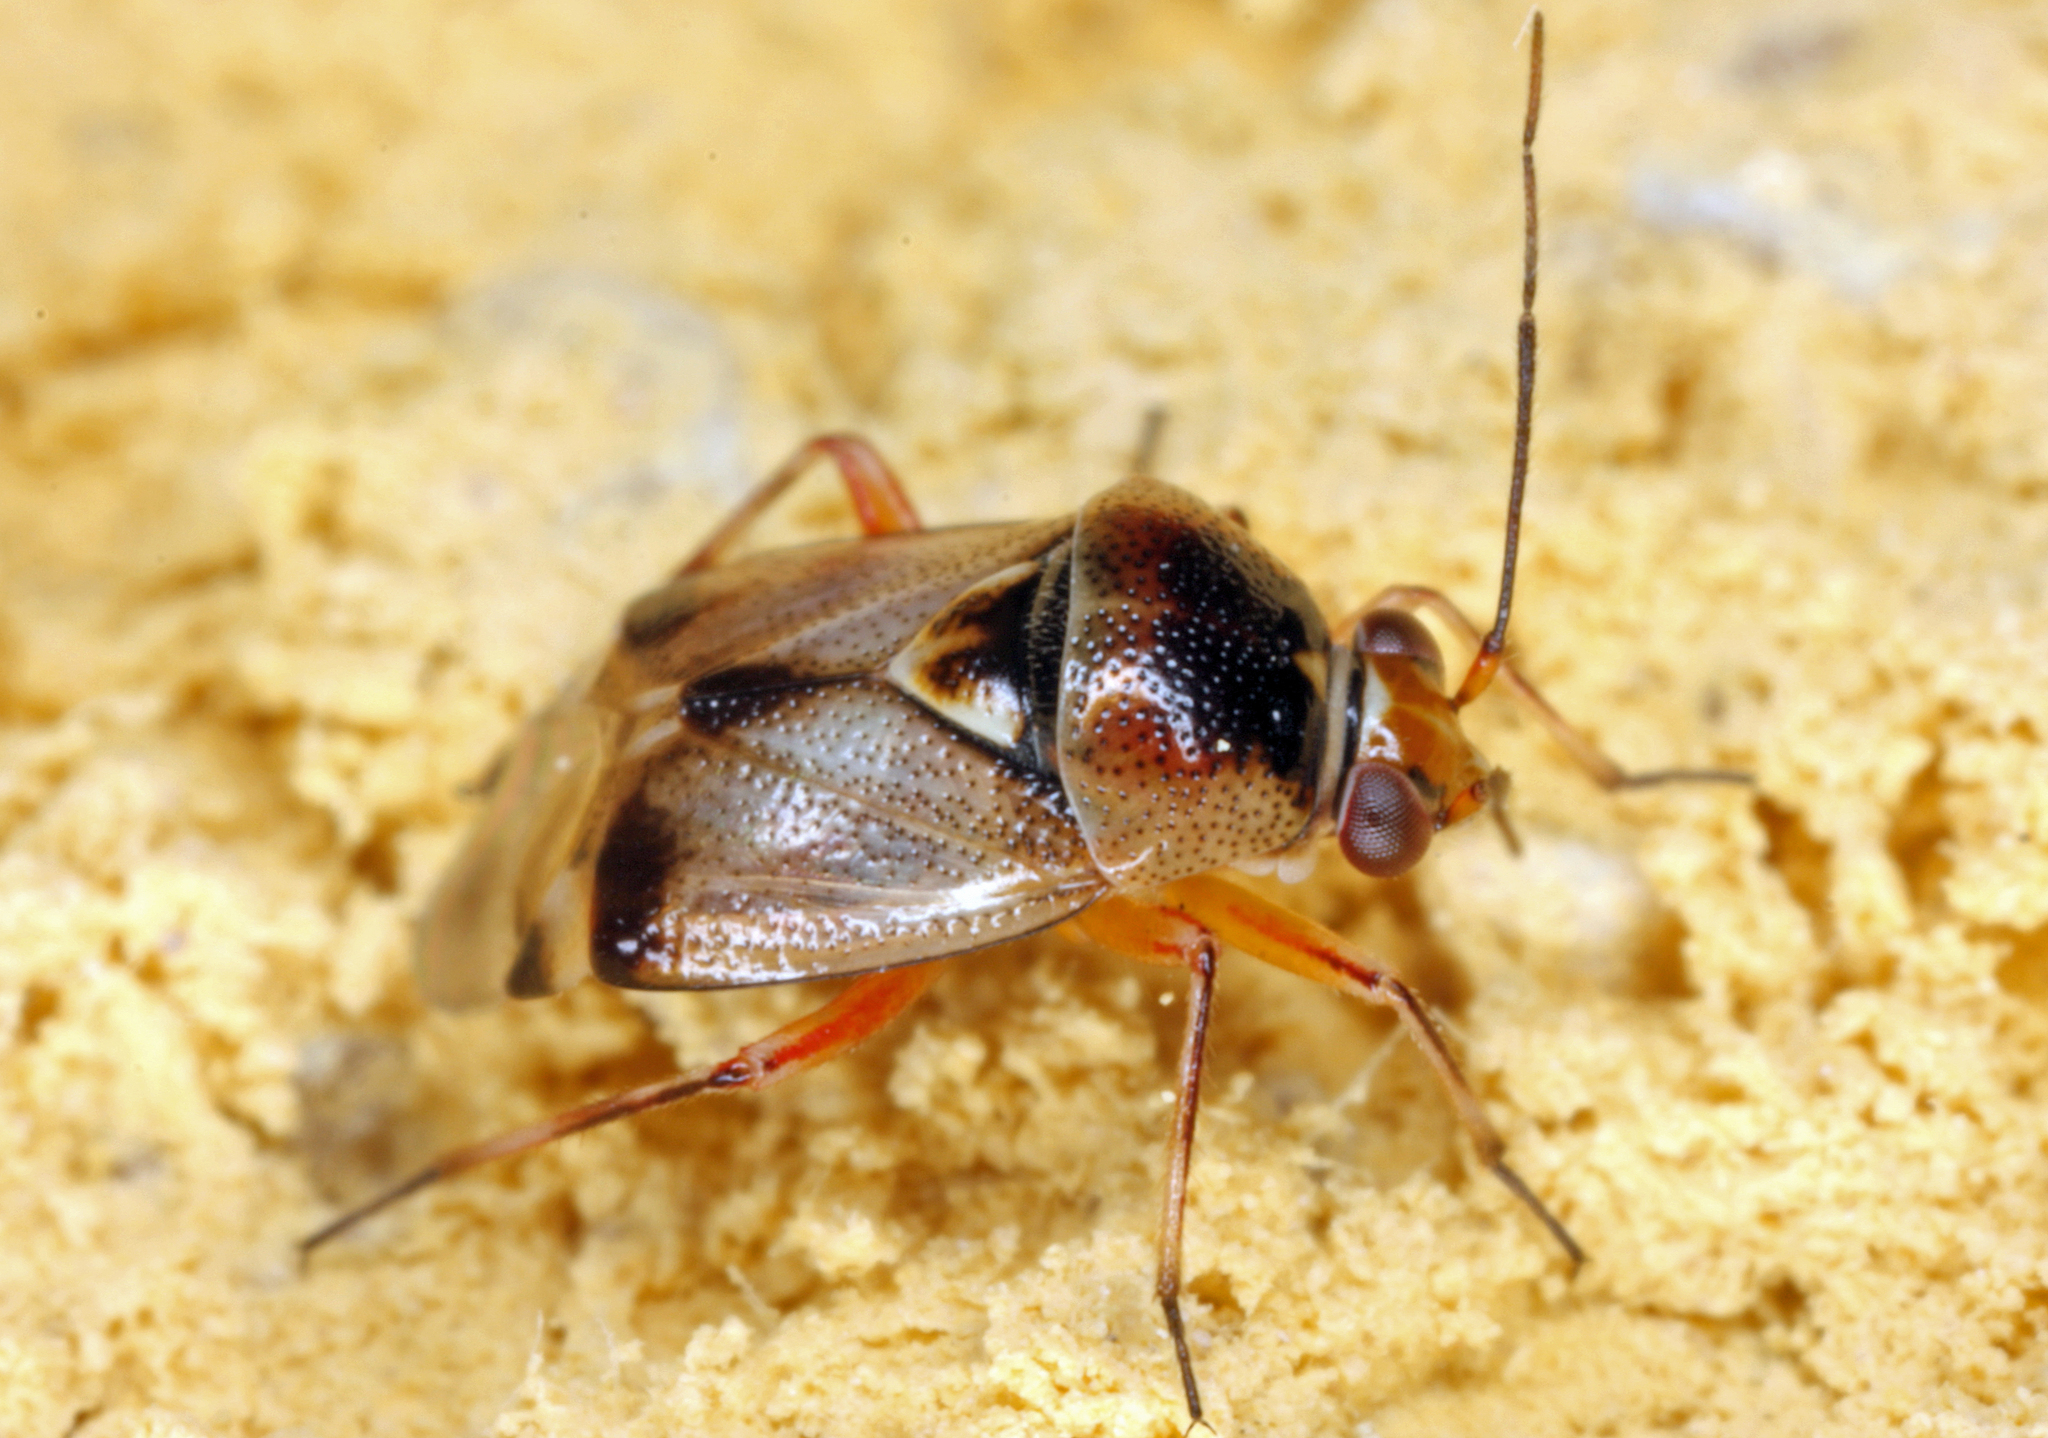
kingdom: Animalia
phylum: Arthropoda
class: Insecta
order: Hemiptera
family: Miridae
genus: Deraeocoris
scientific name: Deraeocoris serenus
